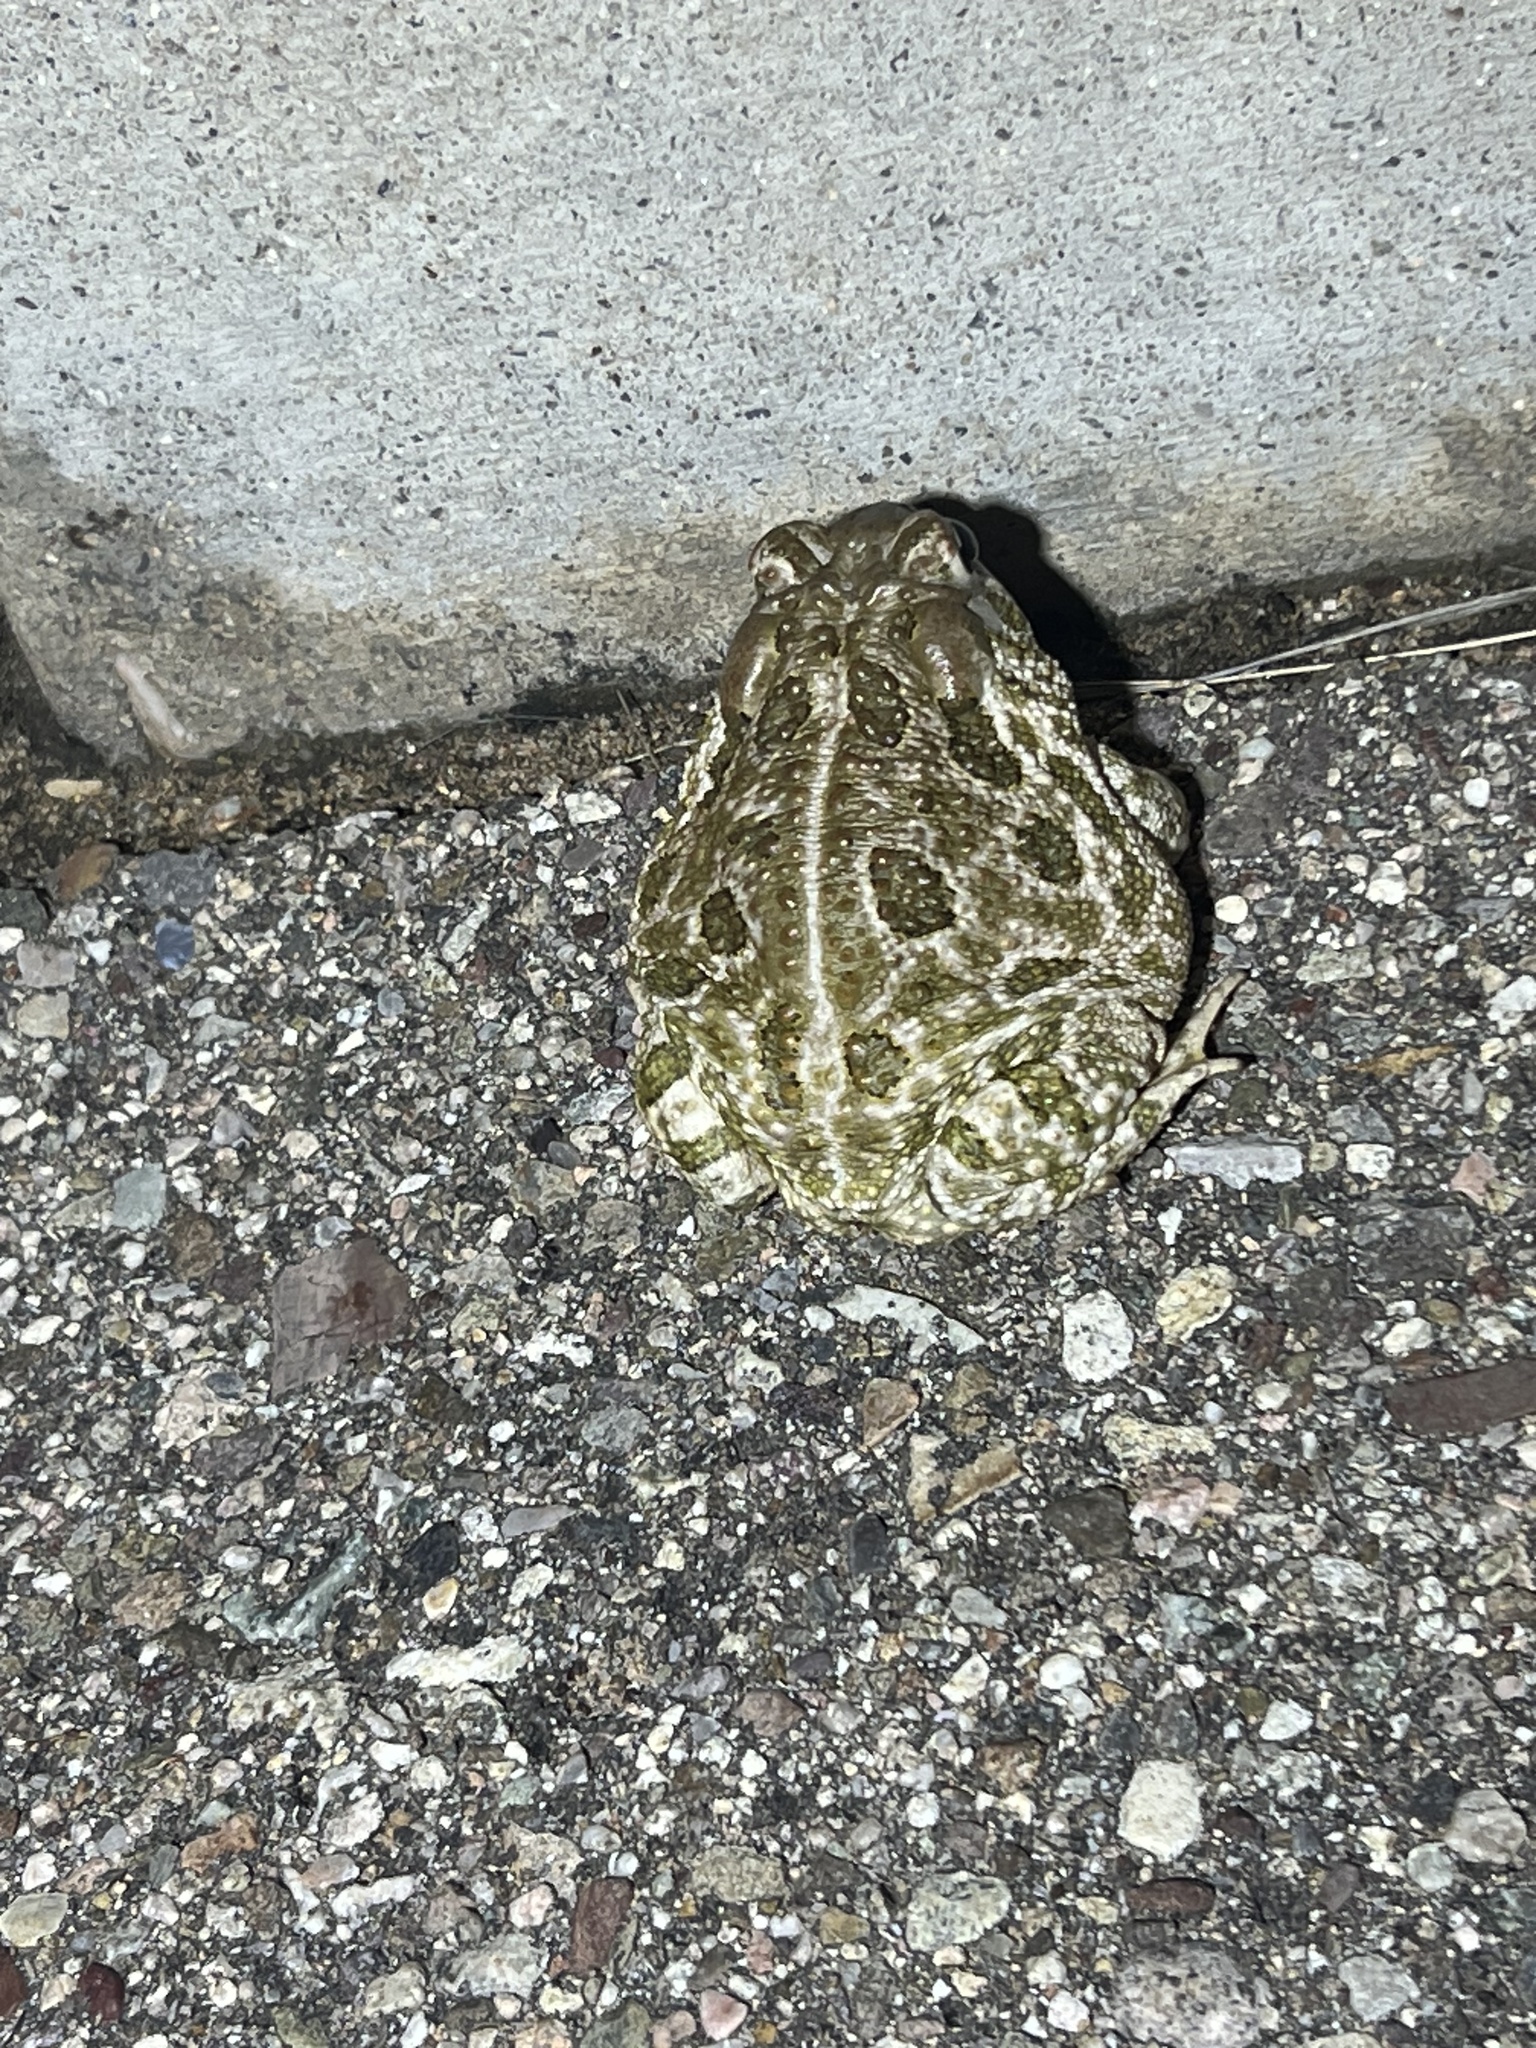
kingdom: Animalia
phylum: Chordata
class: Amphibia
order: Anura
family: Bufonidae
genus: Anaxyrus
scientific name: Anaxyrus cognatus
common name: Great plains toad
